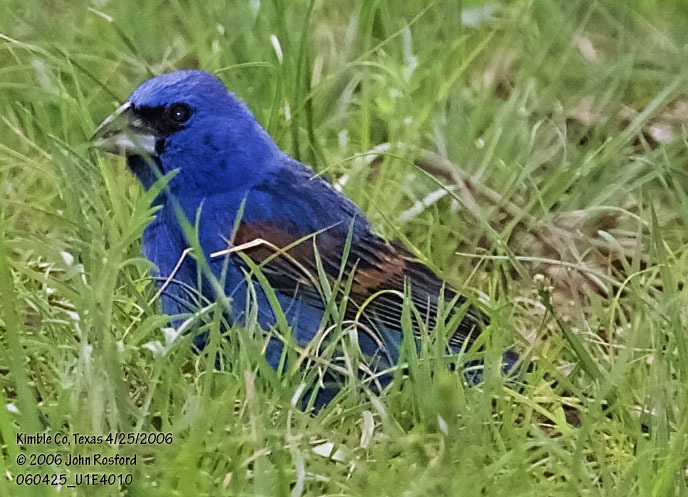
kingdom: Animalia
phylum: Chordata
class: Aves
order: Passeriformes
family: Cardinalidae
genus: Passerina
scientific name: Passerina caerulea
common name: Blue grosbeak
